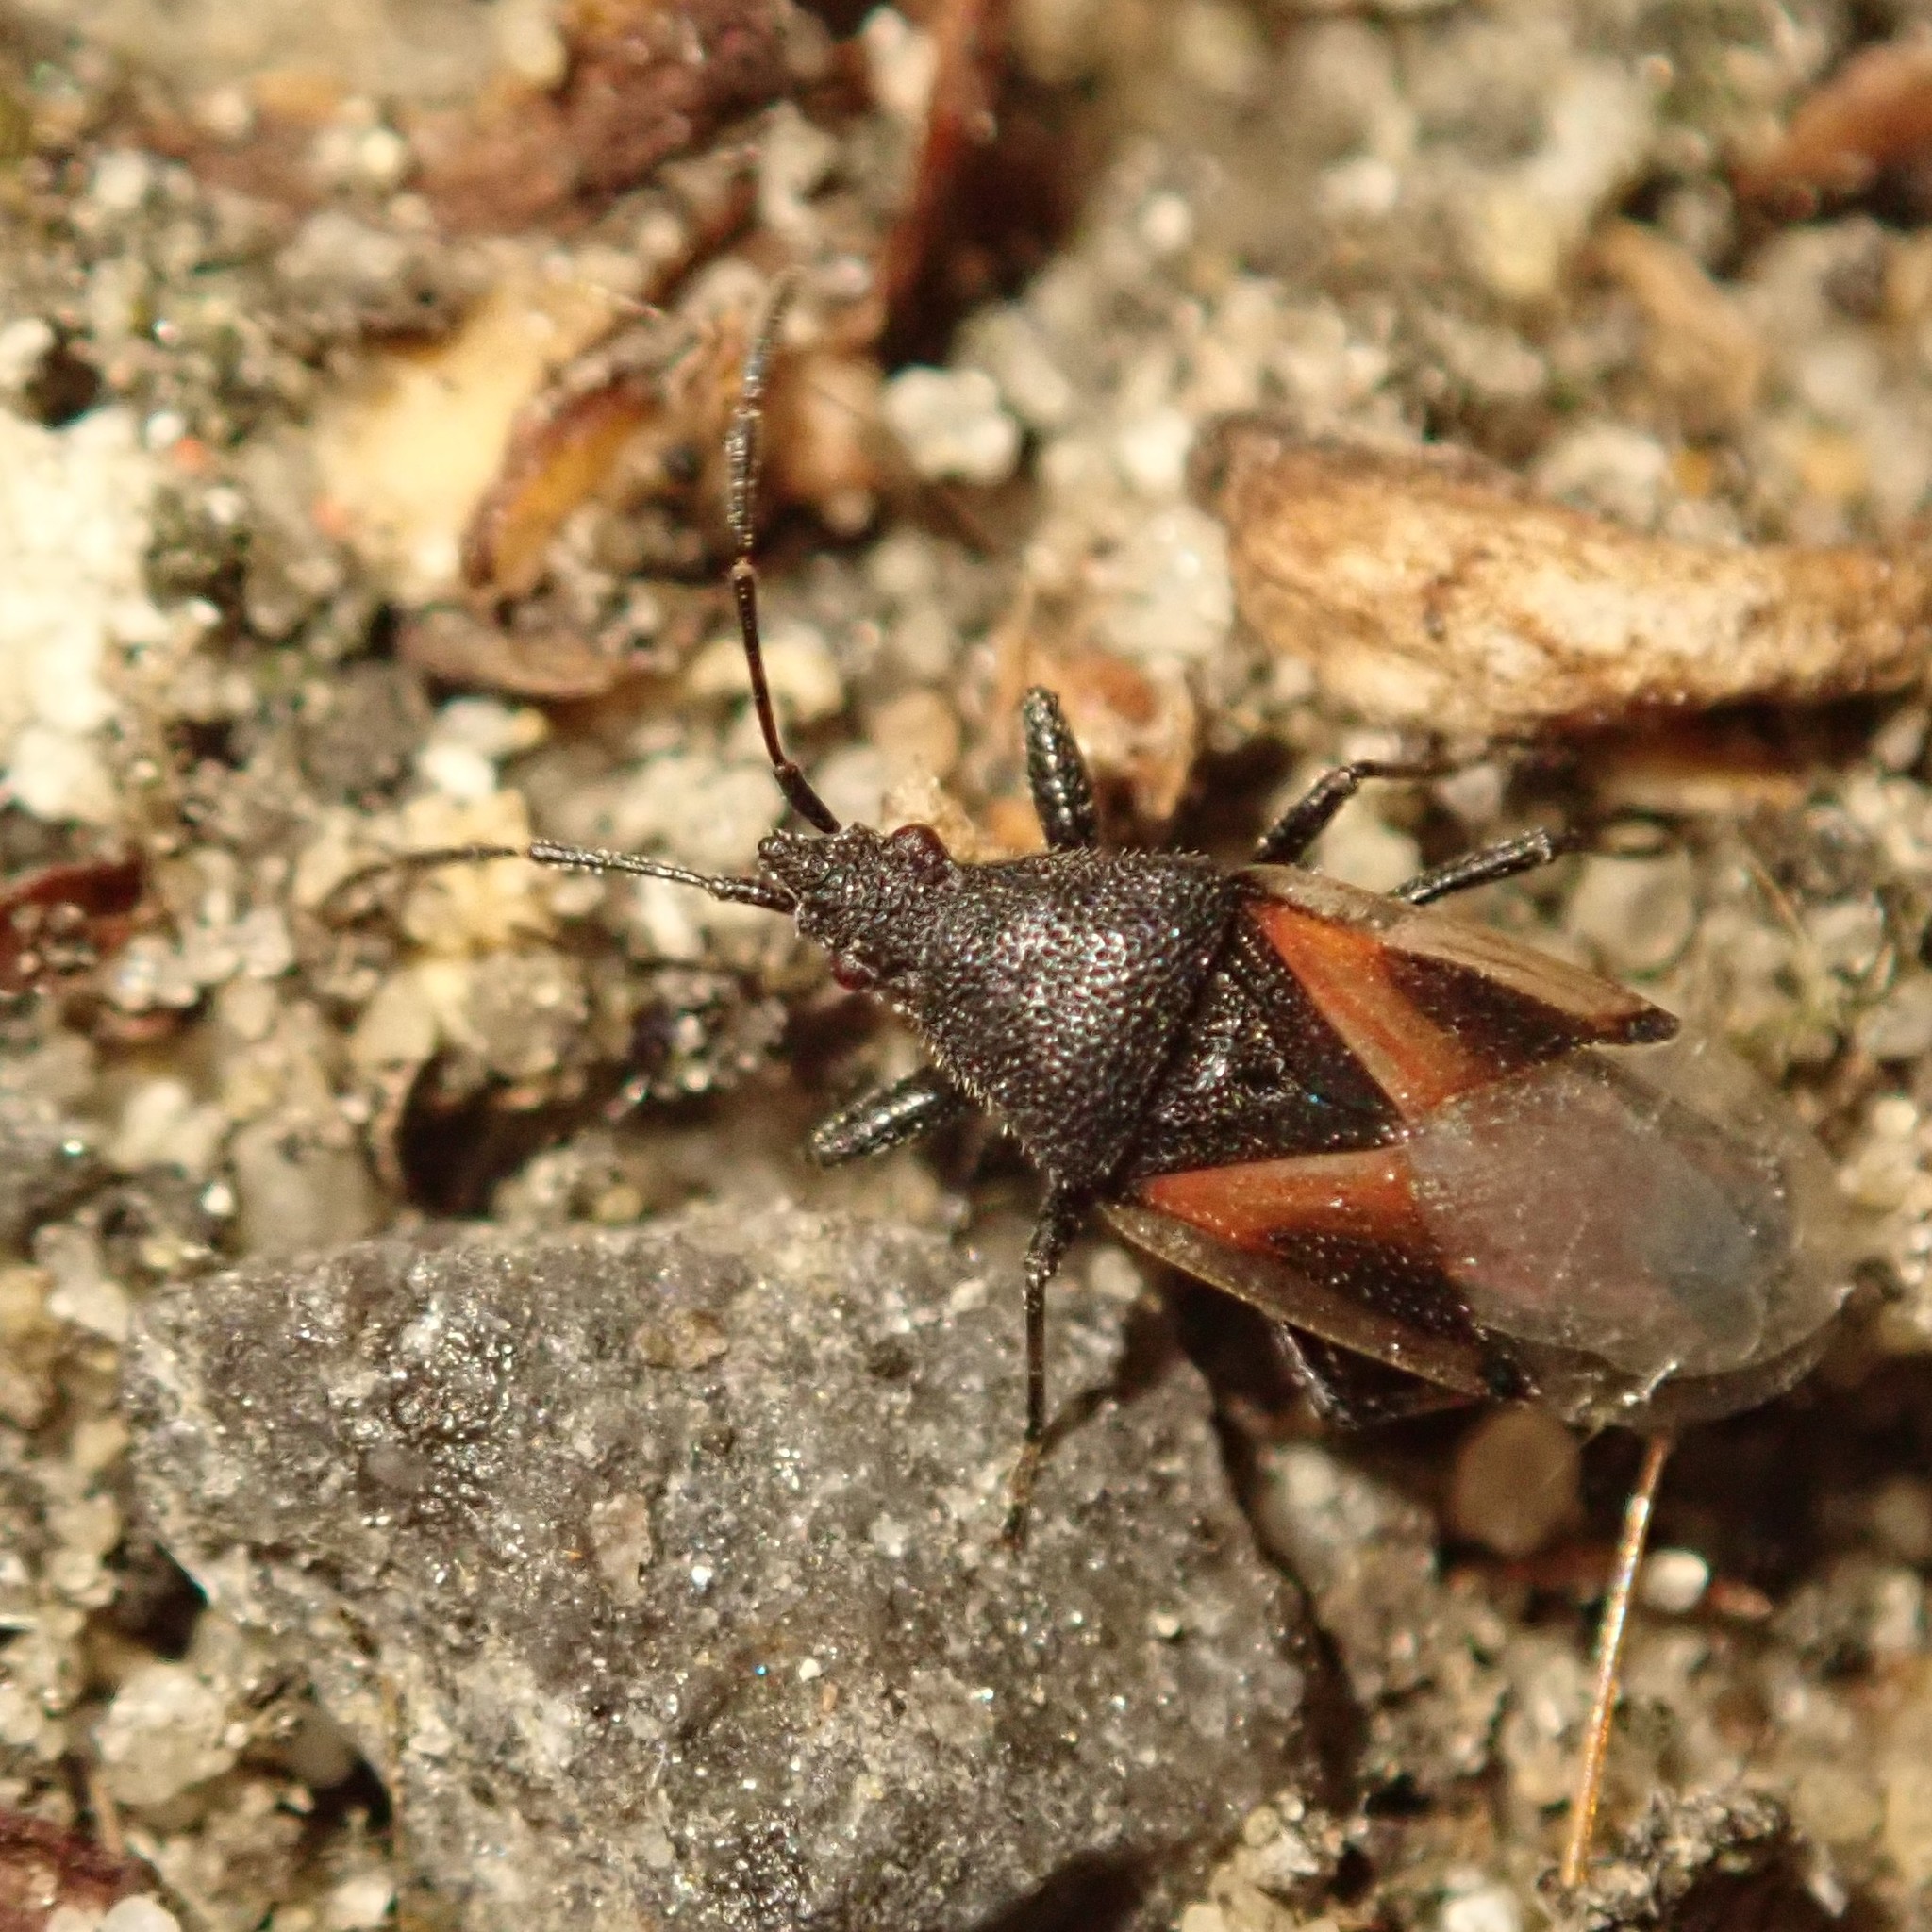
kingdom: Animalia
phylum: Arthropoda
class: Insecta
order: Hemiptera
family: Oxycarenidae
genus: Oxycarenus
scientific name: Oxycarenus lavaterae
